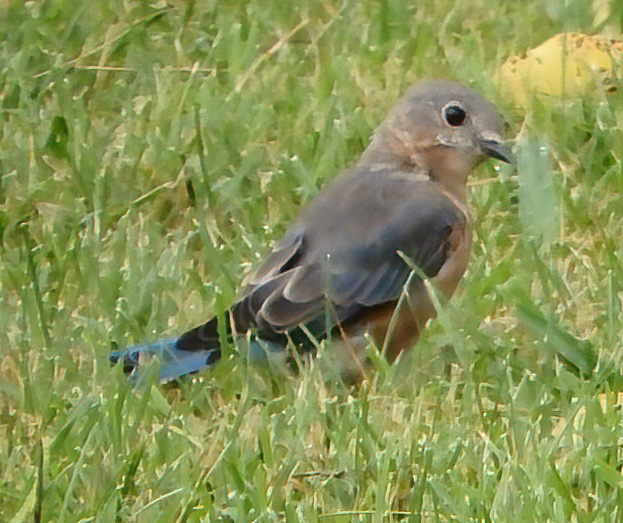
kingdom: Animalia
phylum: Chordata
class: Aves
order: Passeriformes
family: Turdidae
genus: Sialia
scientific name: Sialia sialis
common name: Eastern bluebird
